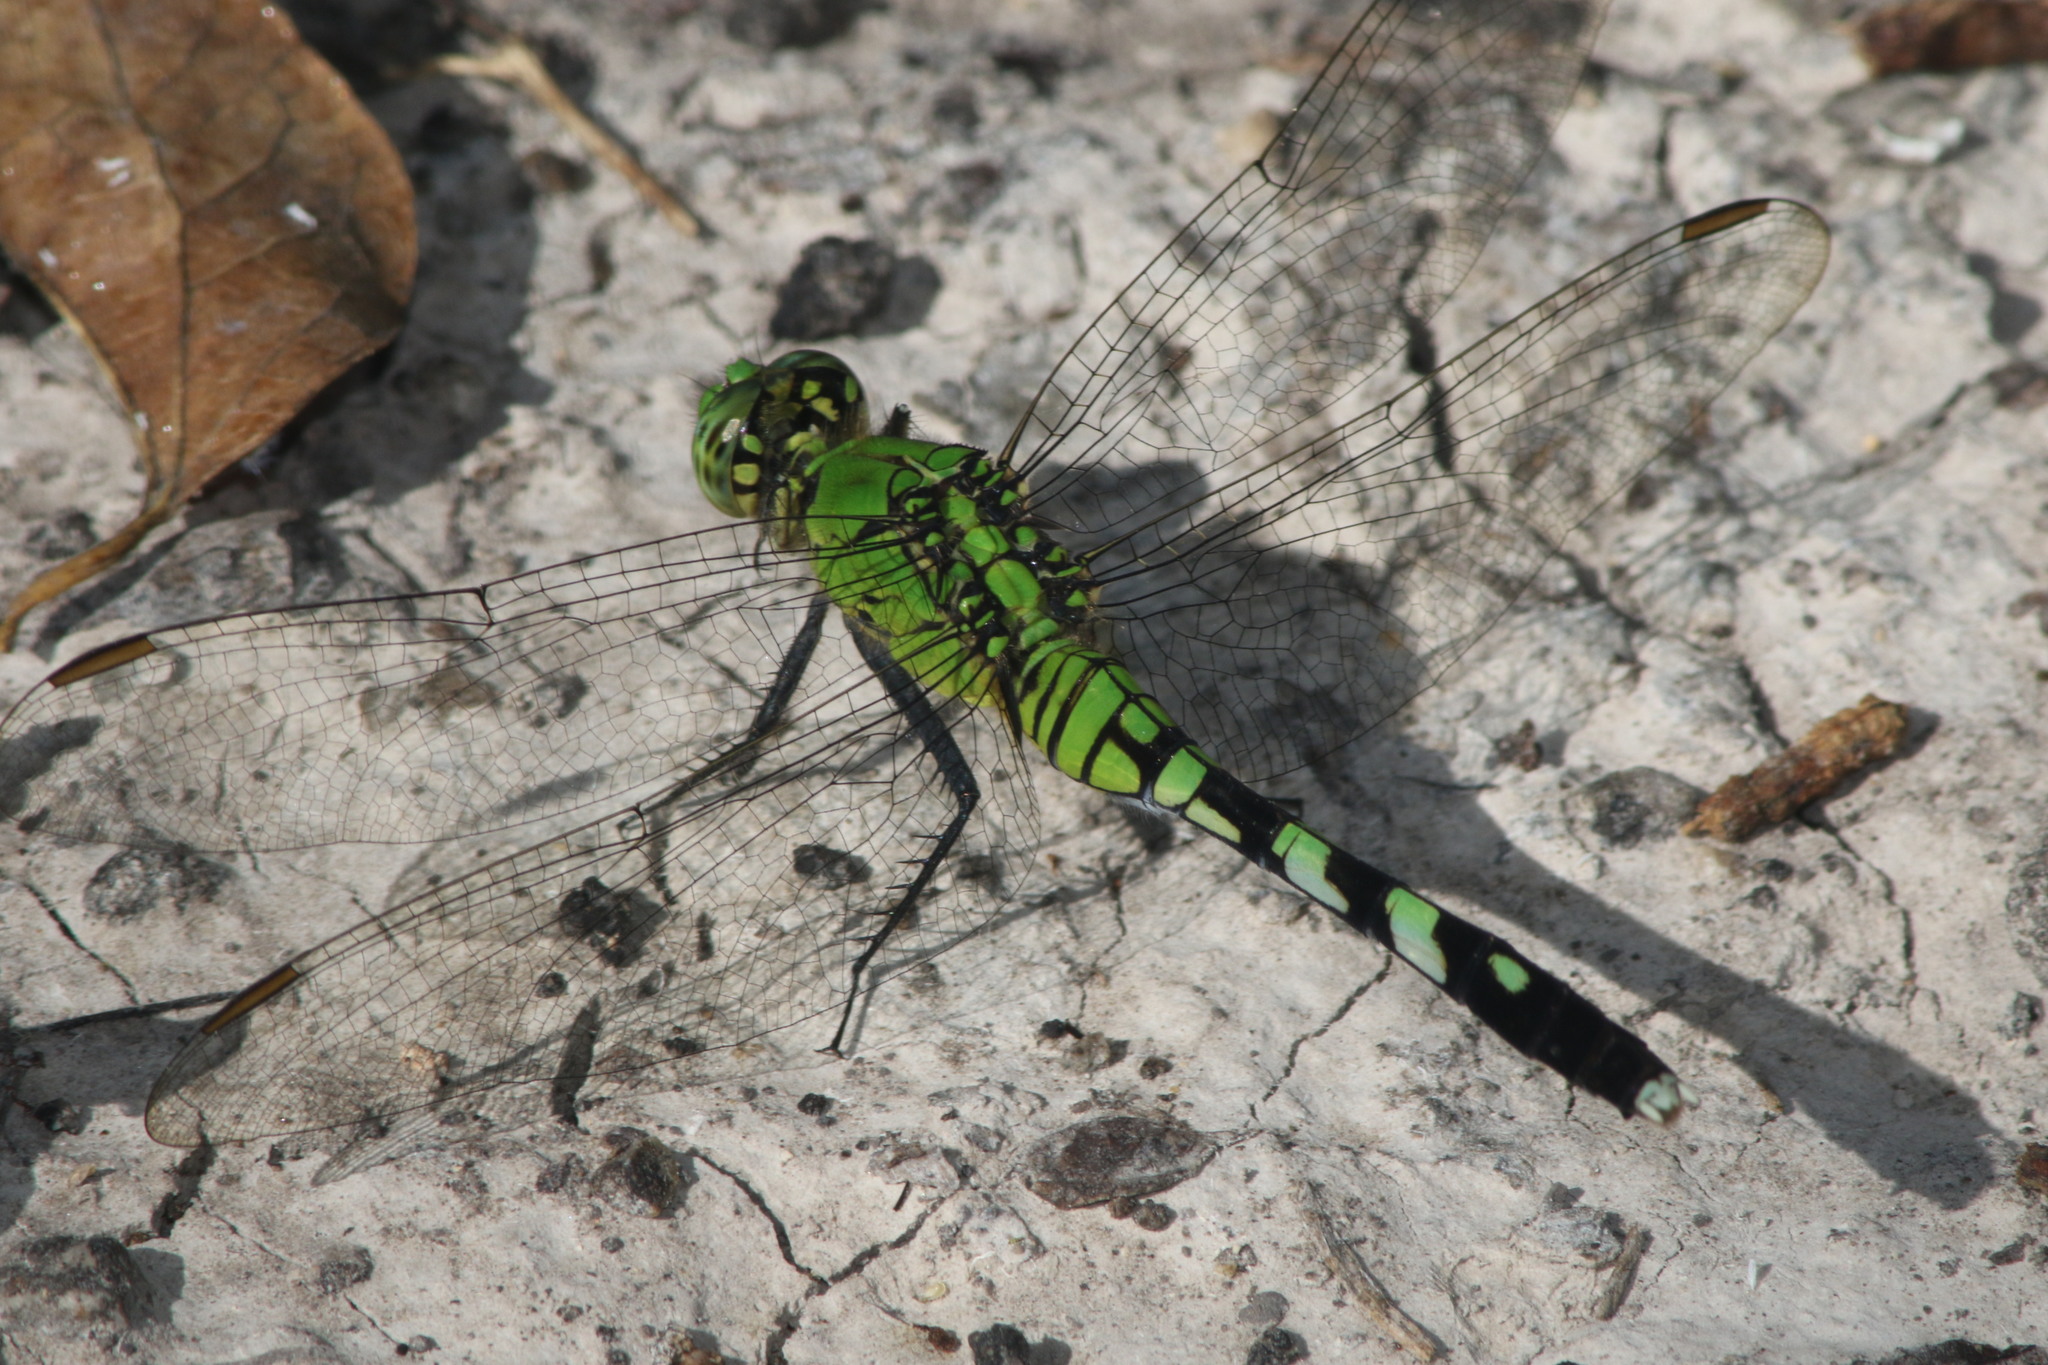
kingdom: Animalia
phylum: Arthropoda
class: Insecta
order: Odonata
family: Libellulidae
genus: Erythemis
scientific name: Erythemis simplicicollis
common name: Eastern pondhawk
